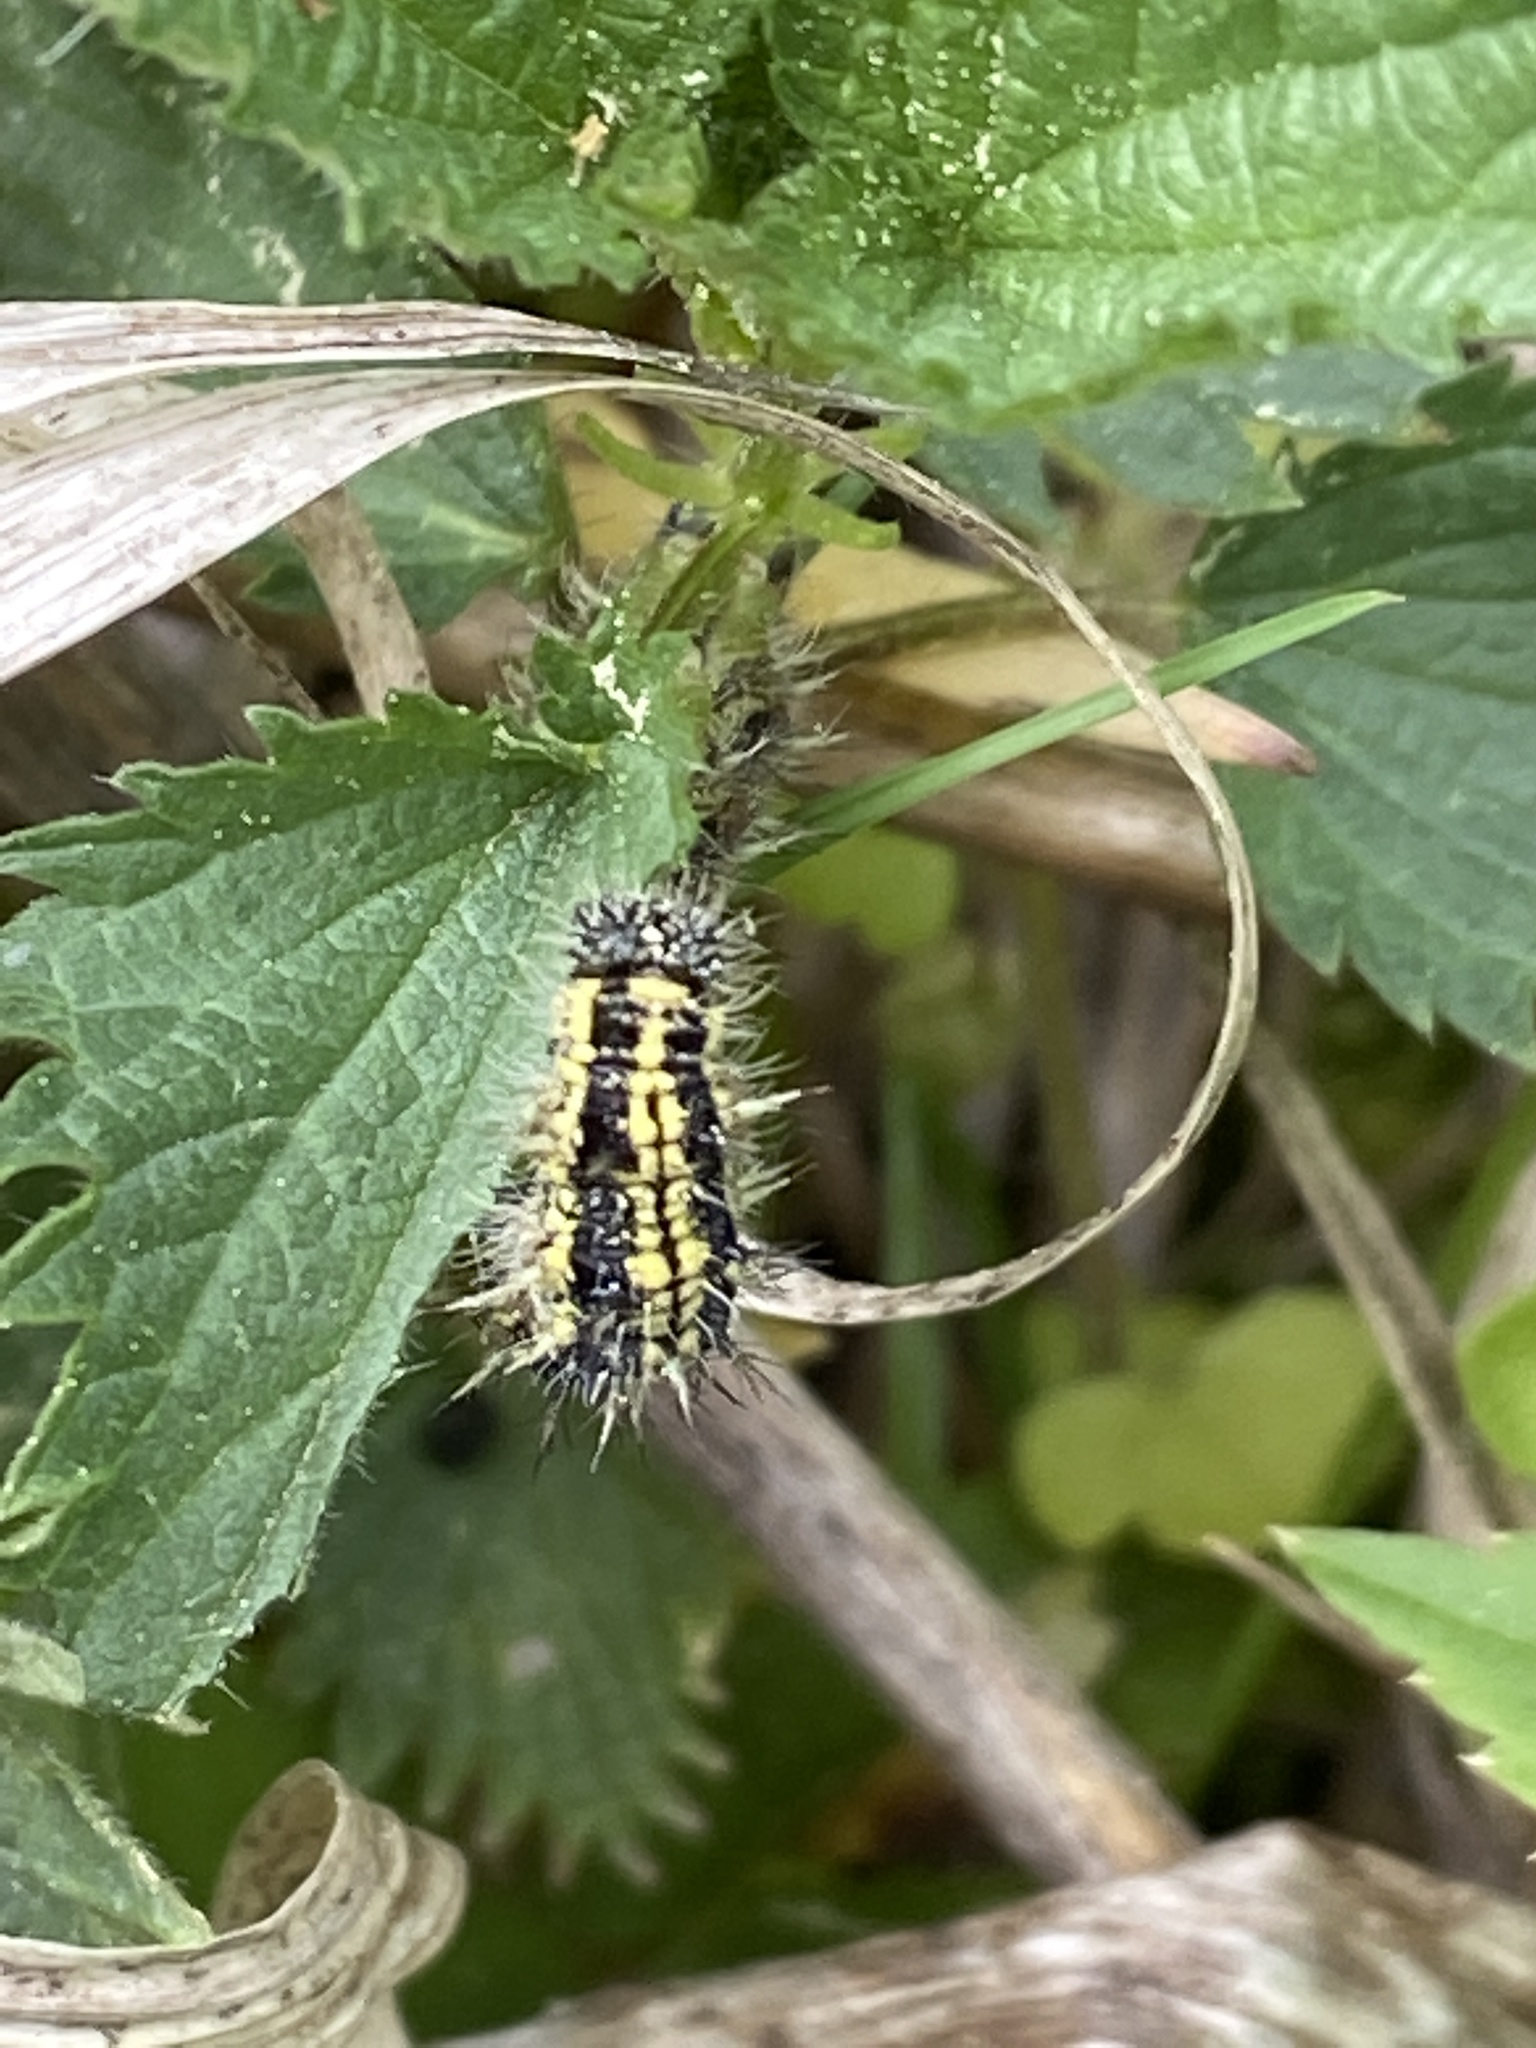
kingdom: Animalia
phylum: Arthropoda
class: Insecta
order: Lepidoptera
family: Nymphalidae
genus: Aglais
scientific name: Aglais urticae
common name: Small tortoiseshell
